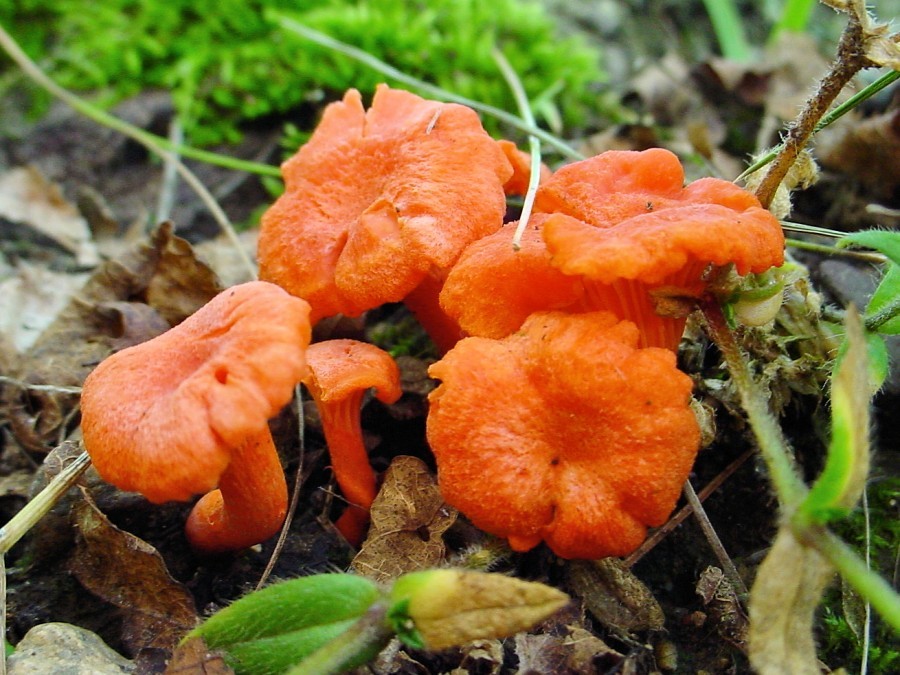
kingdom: Fungi
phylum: Basidiomycota
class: Agaricomycetes
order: Cantharellales
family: Hydnaceae
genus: Cantharellus
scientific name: Cantharellus cinnabarinus
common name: Cinnabar chanterelle
